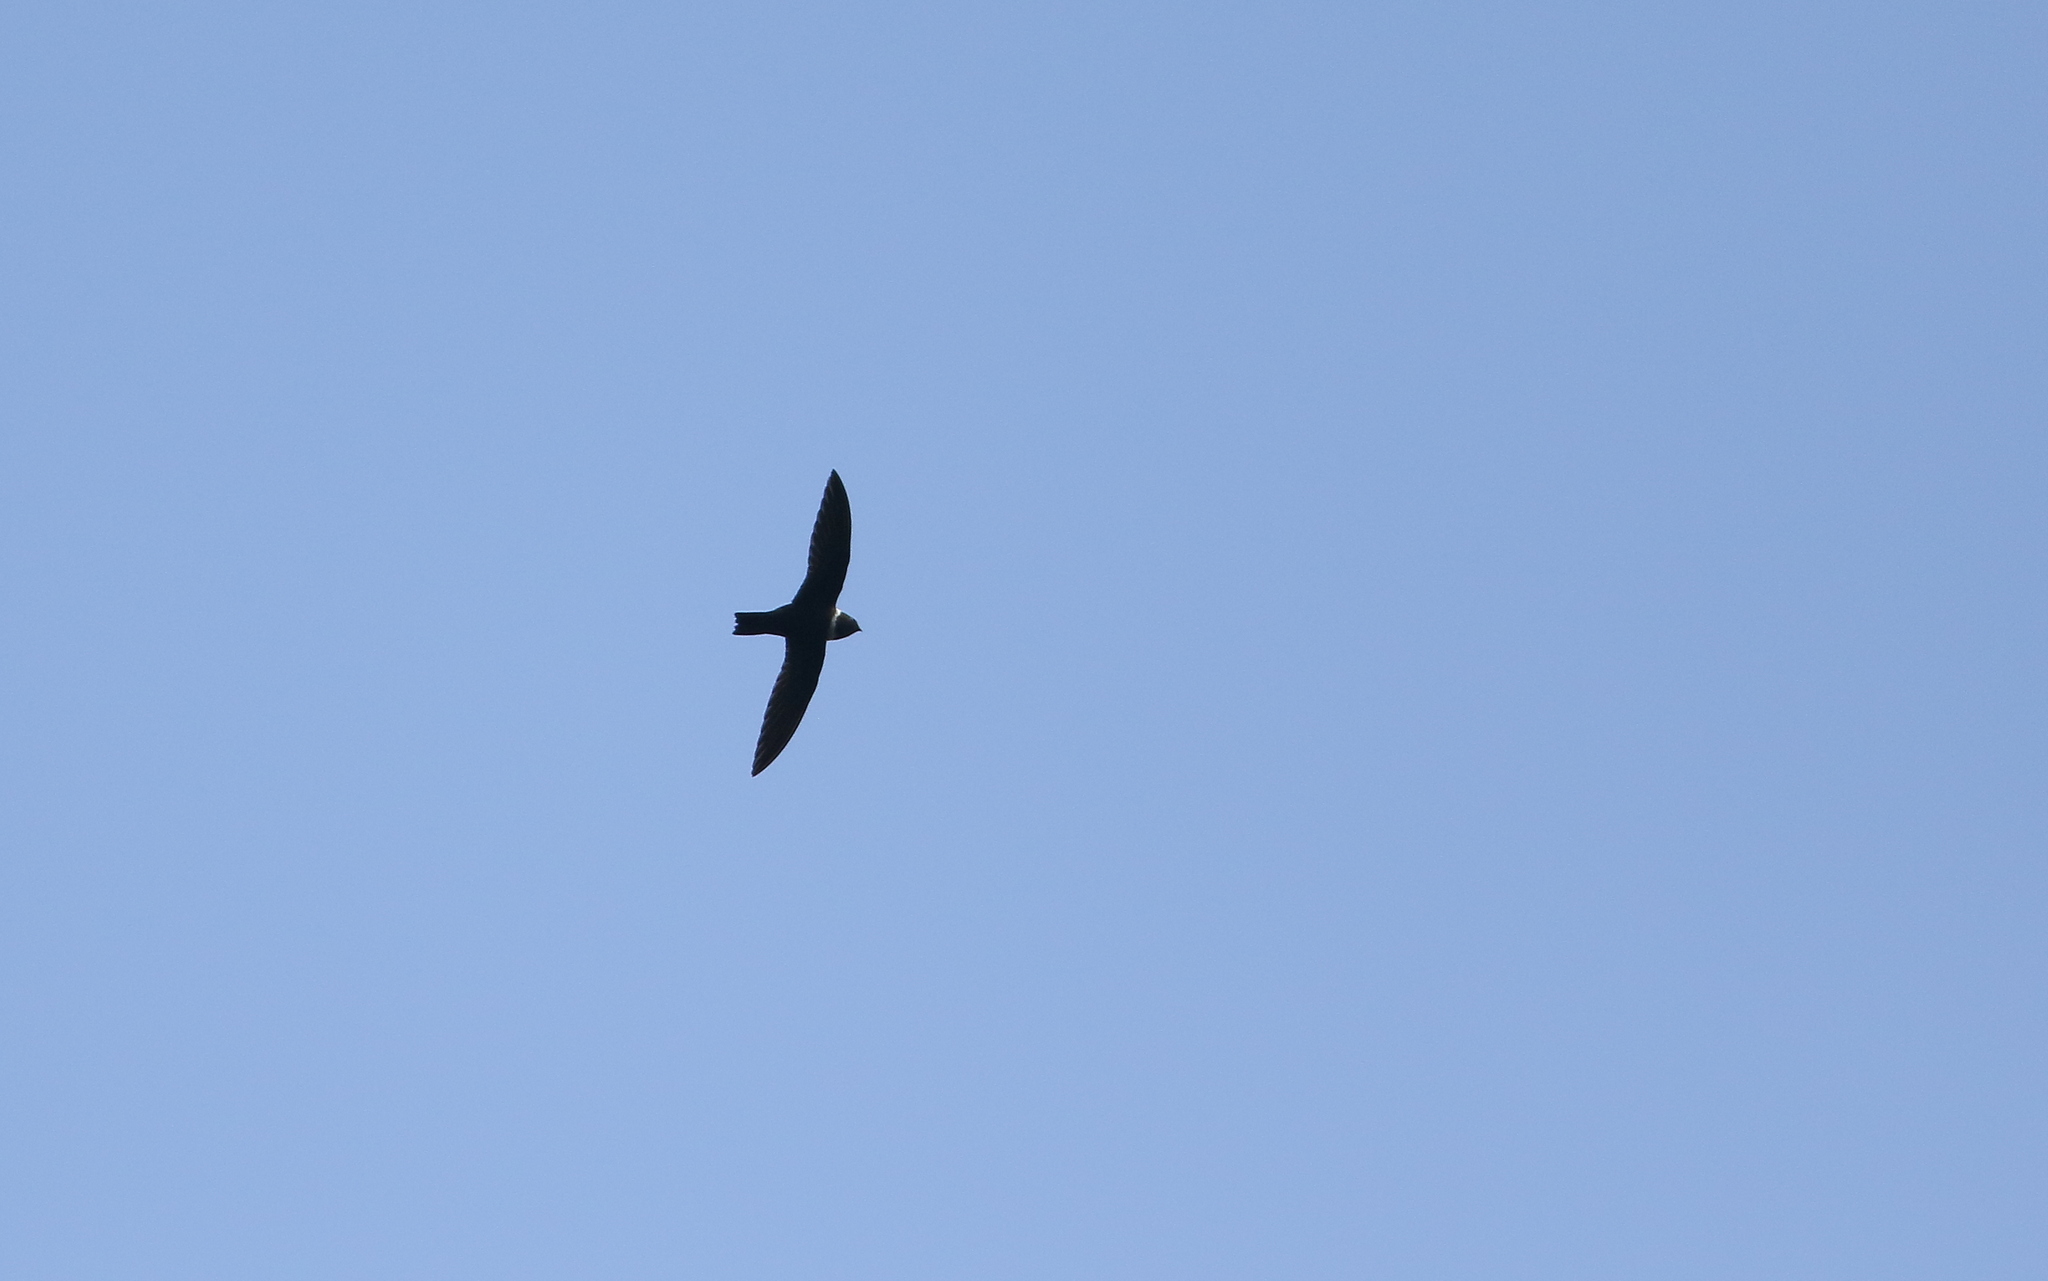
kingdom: Animalia
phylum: Chordata
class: Aves
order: Apodiformes
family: Apodidae
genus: Streptoprocne
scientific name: Streptoprocne zonaris
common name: White-collared swift
